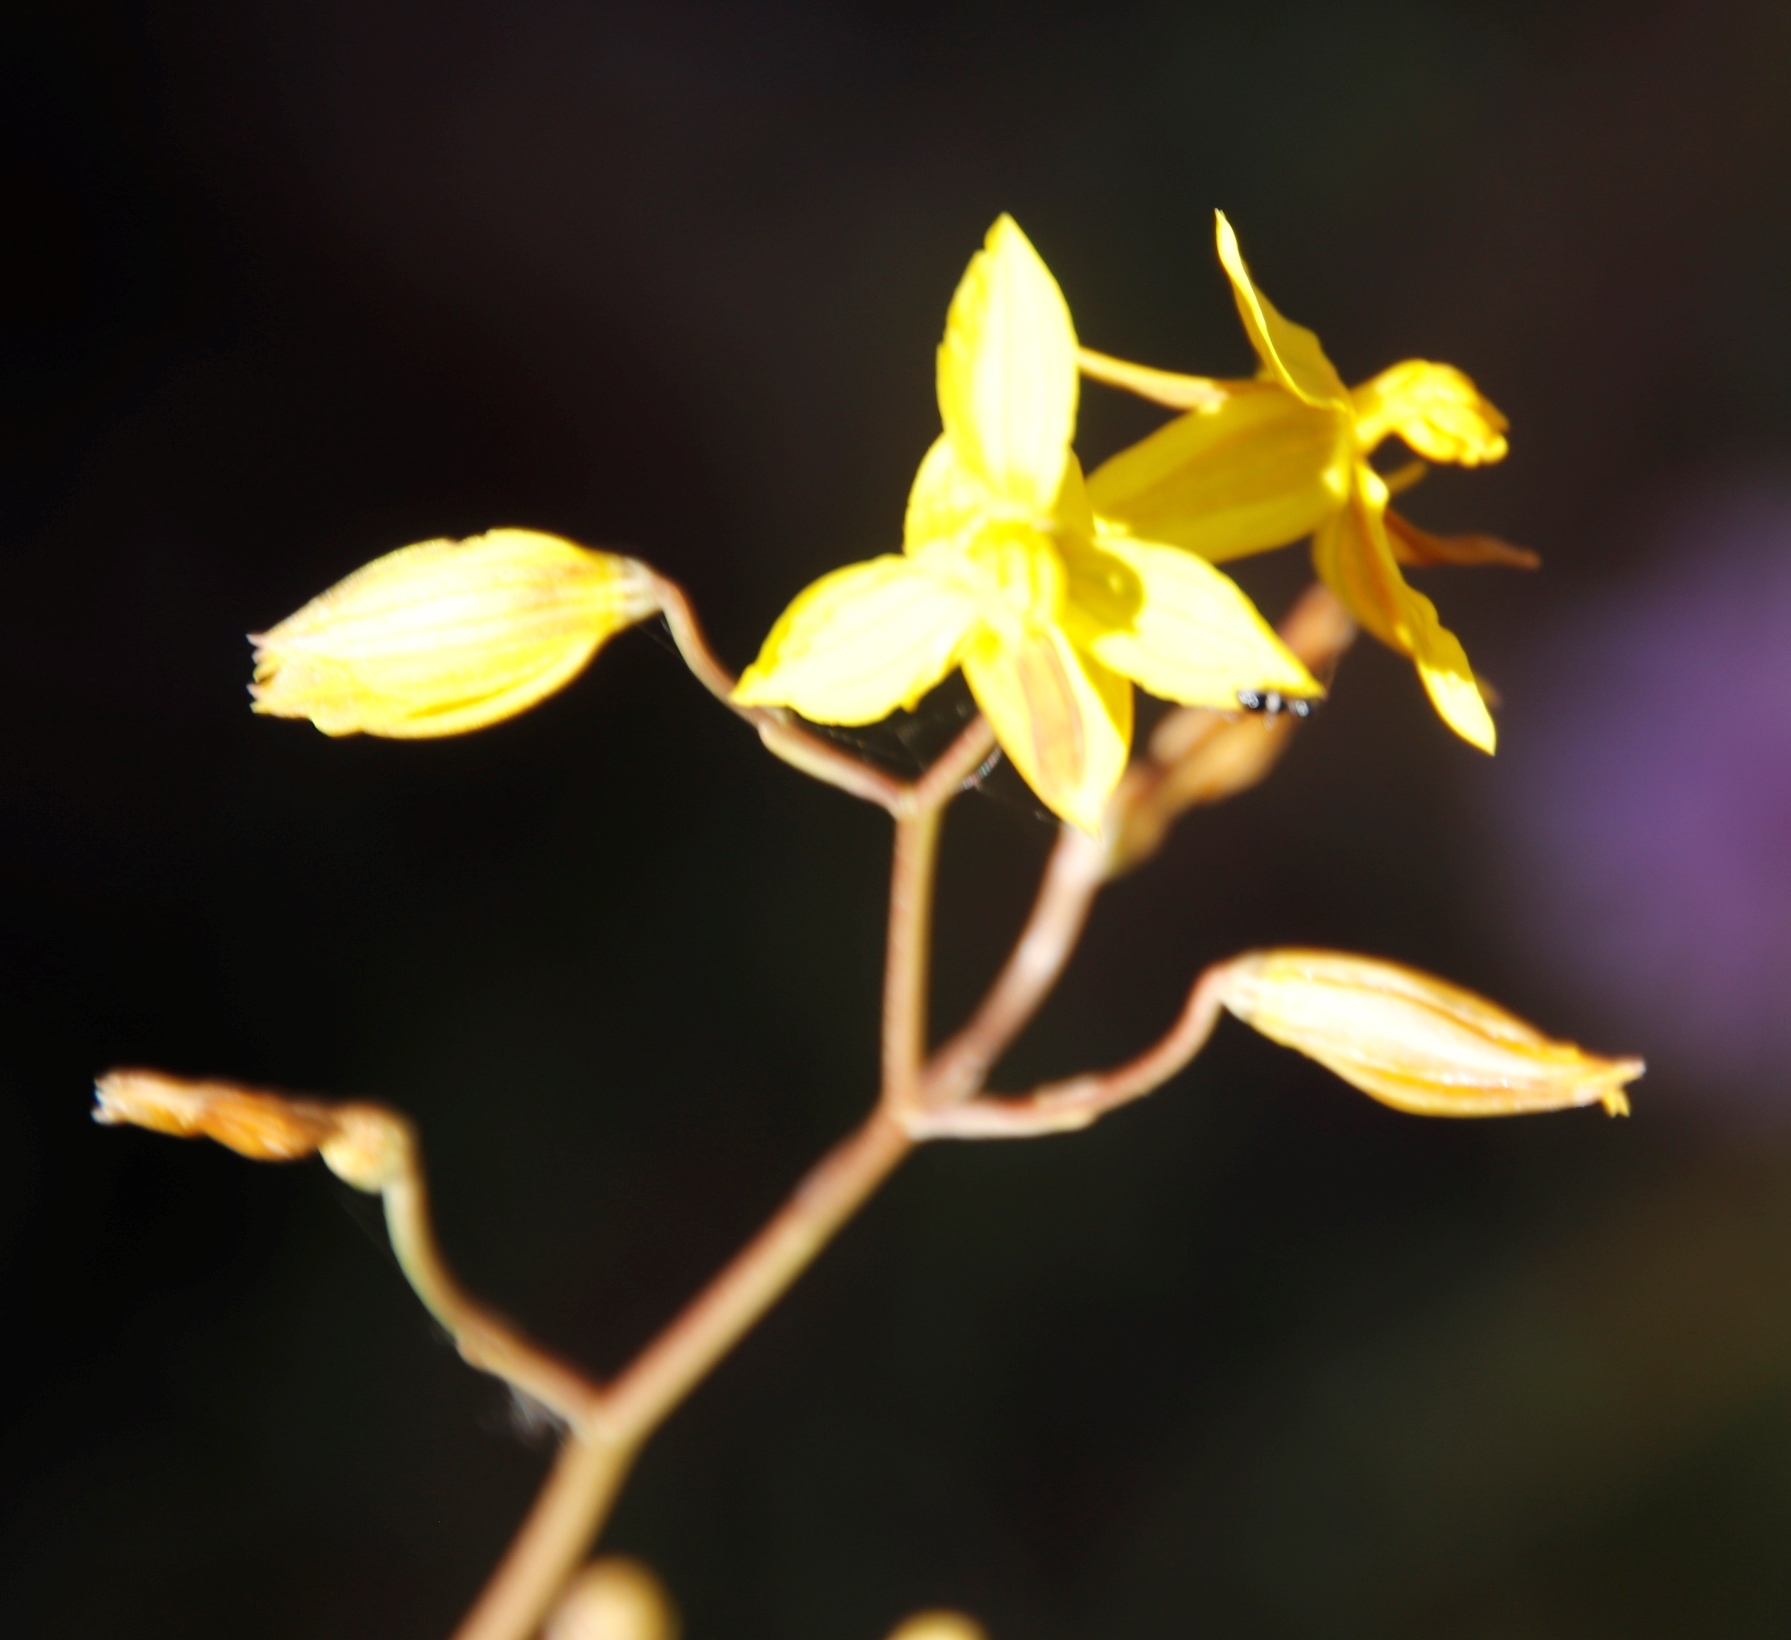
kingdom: Plantae
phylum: Tracheophyta
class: Liliopsida
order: Asparagales
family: Tecophilaeaceae
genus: Cyanella
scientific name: Cyanella lutea
